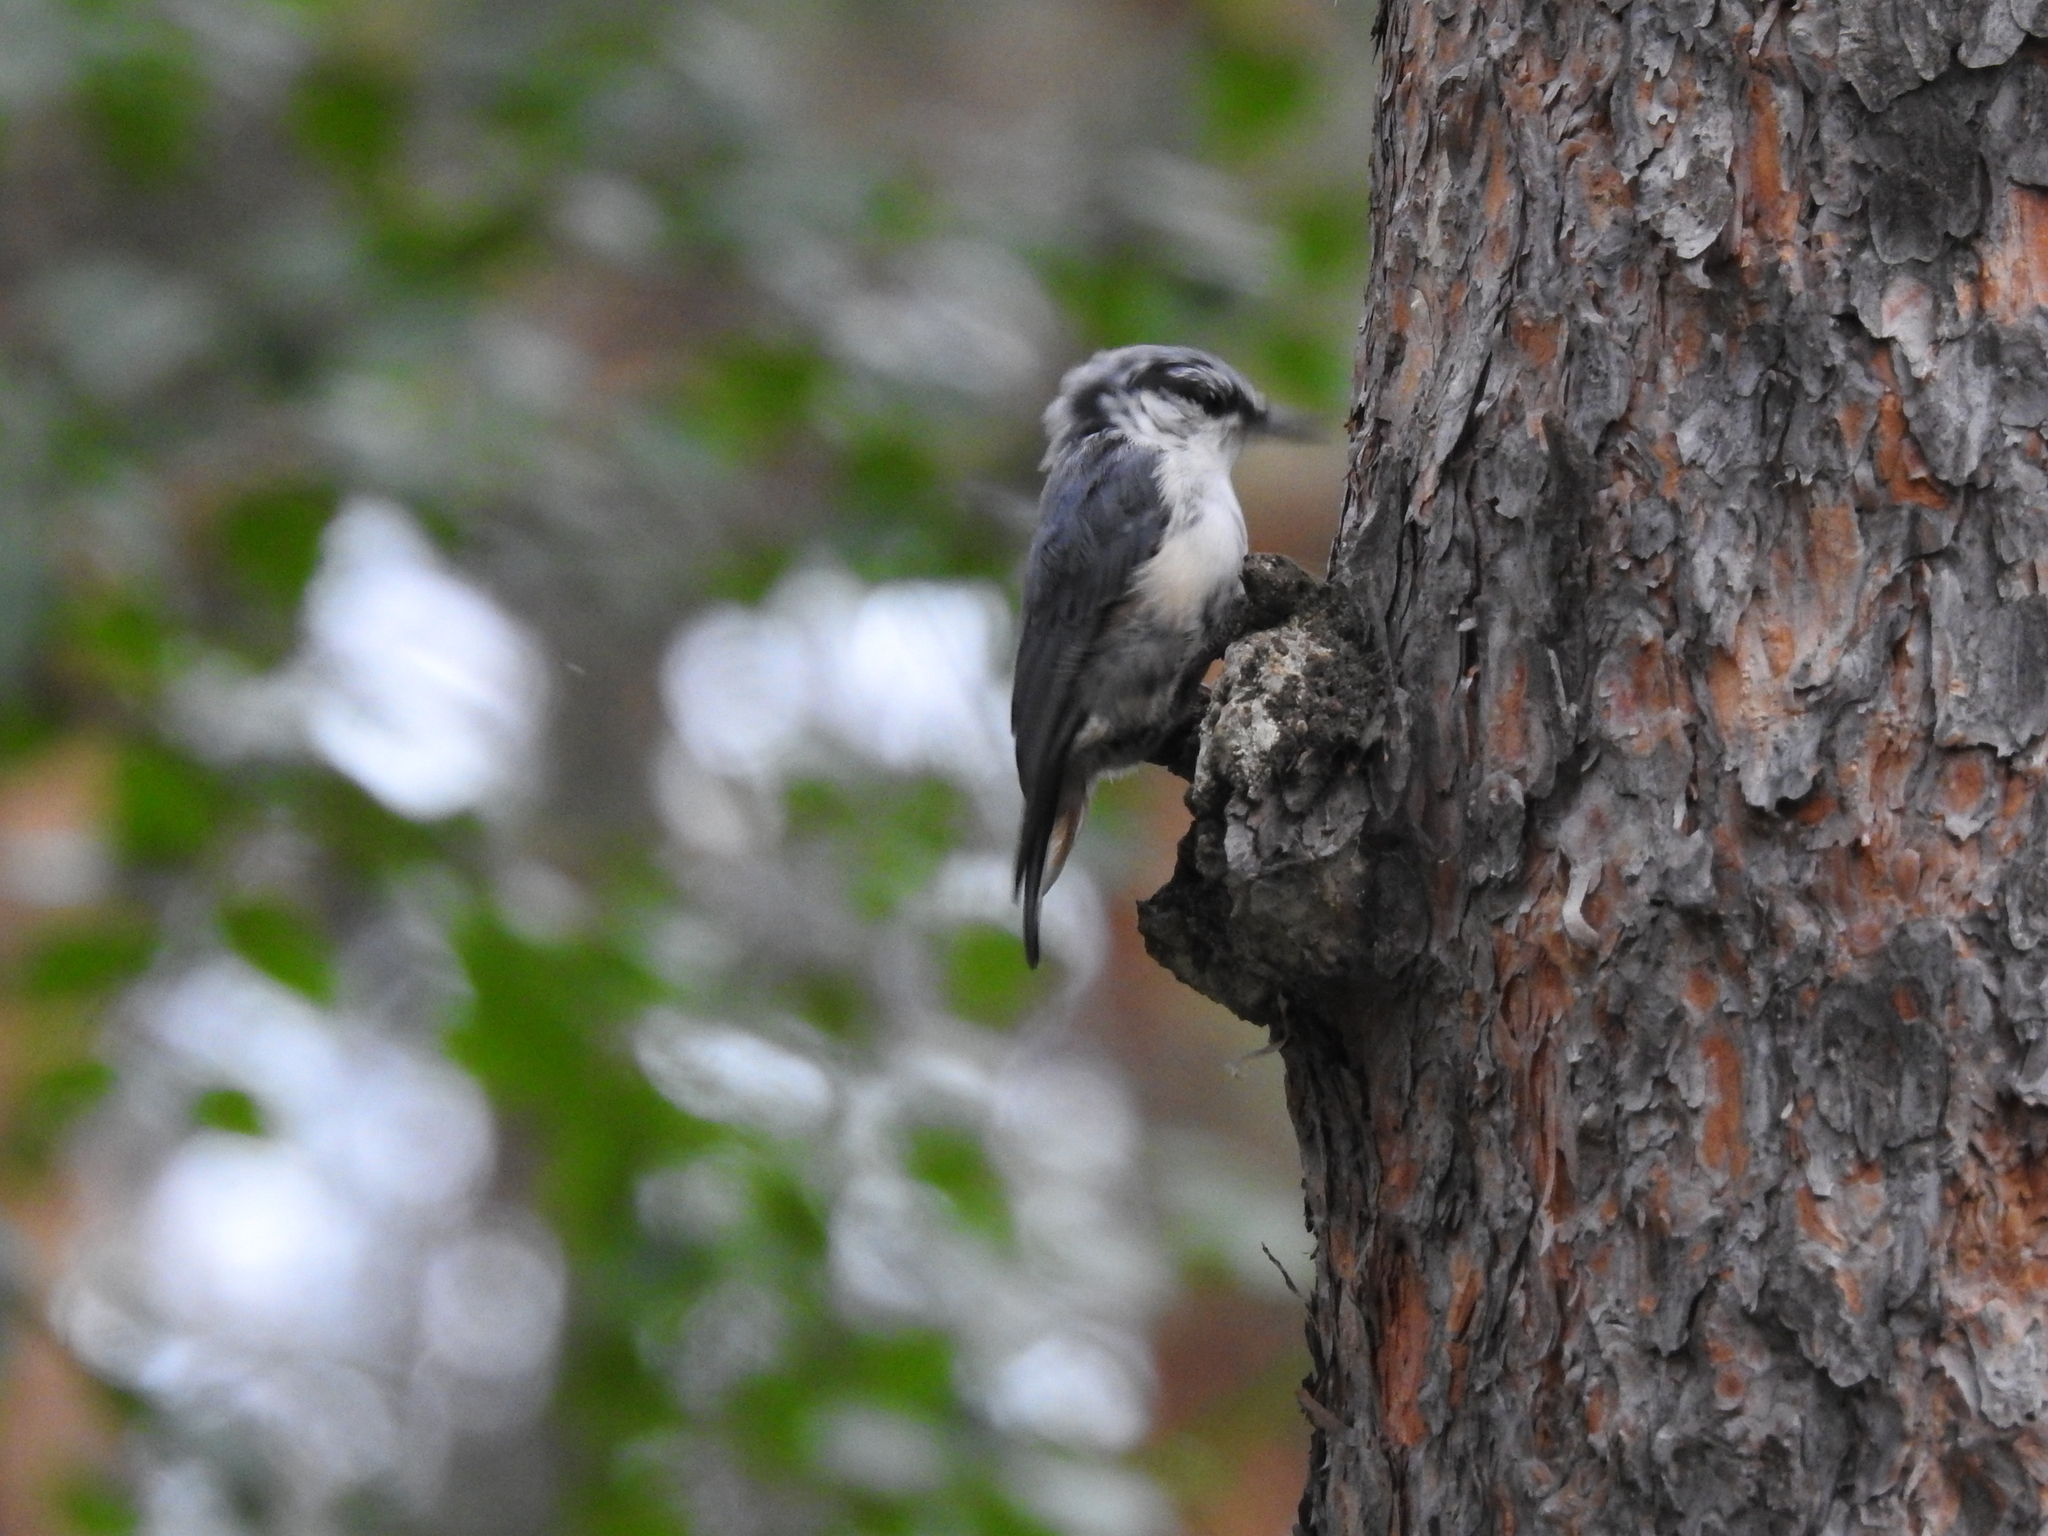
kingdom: Animalia
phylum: Chordata
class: Aves
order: Passeriformes
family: Sittidae
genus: Sitta
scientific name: Sitta europaea
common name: Eurasian nuthatch
